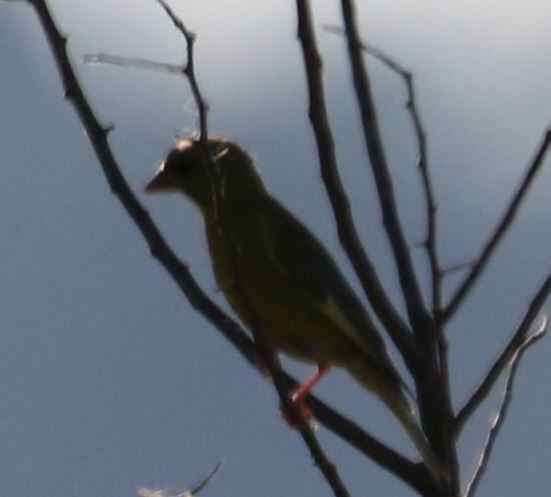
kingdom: Plantae
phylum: Tracheophyta
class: Liliopsida
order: Poales
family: Poaceae
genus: Chloris
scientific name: Chloris chloris
